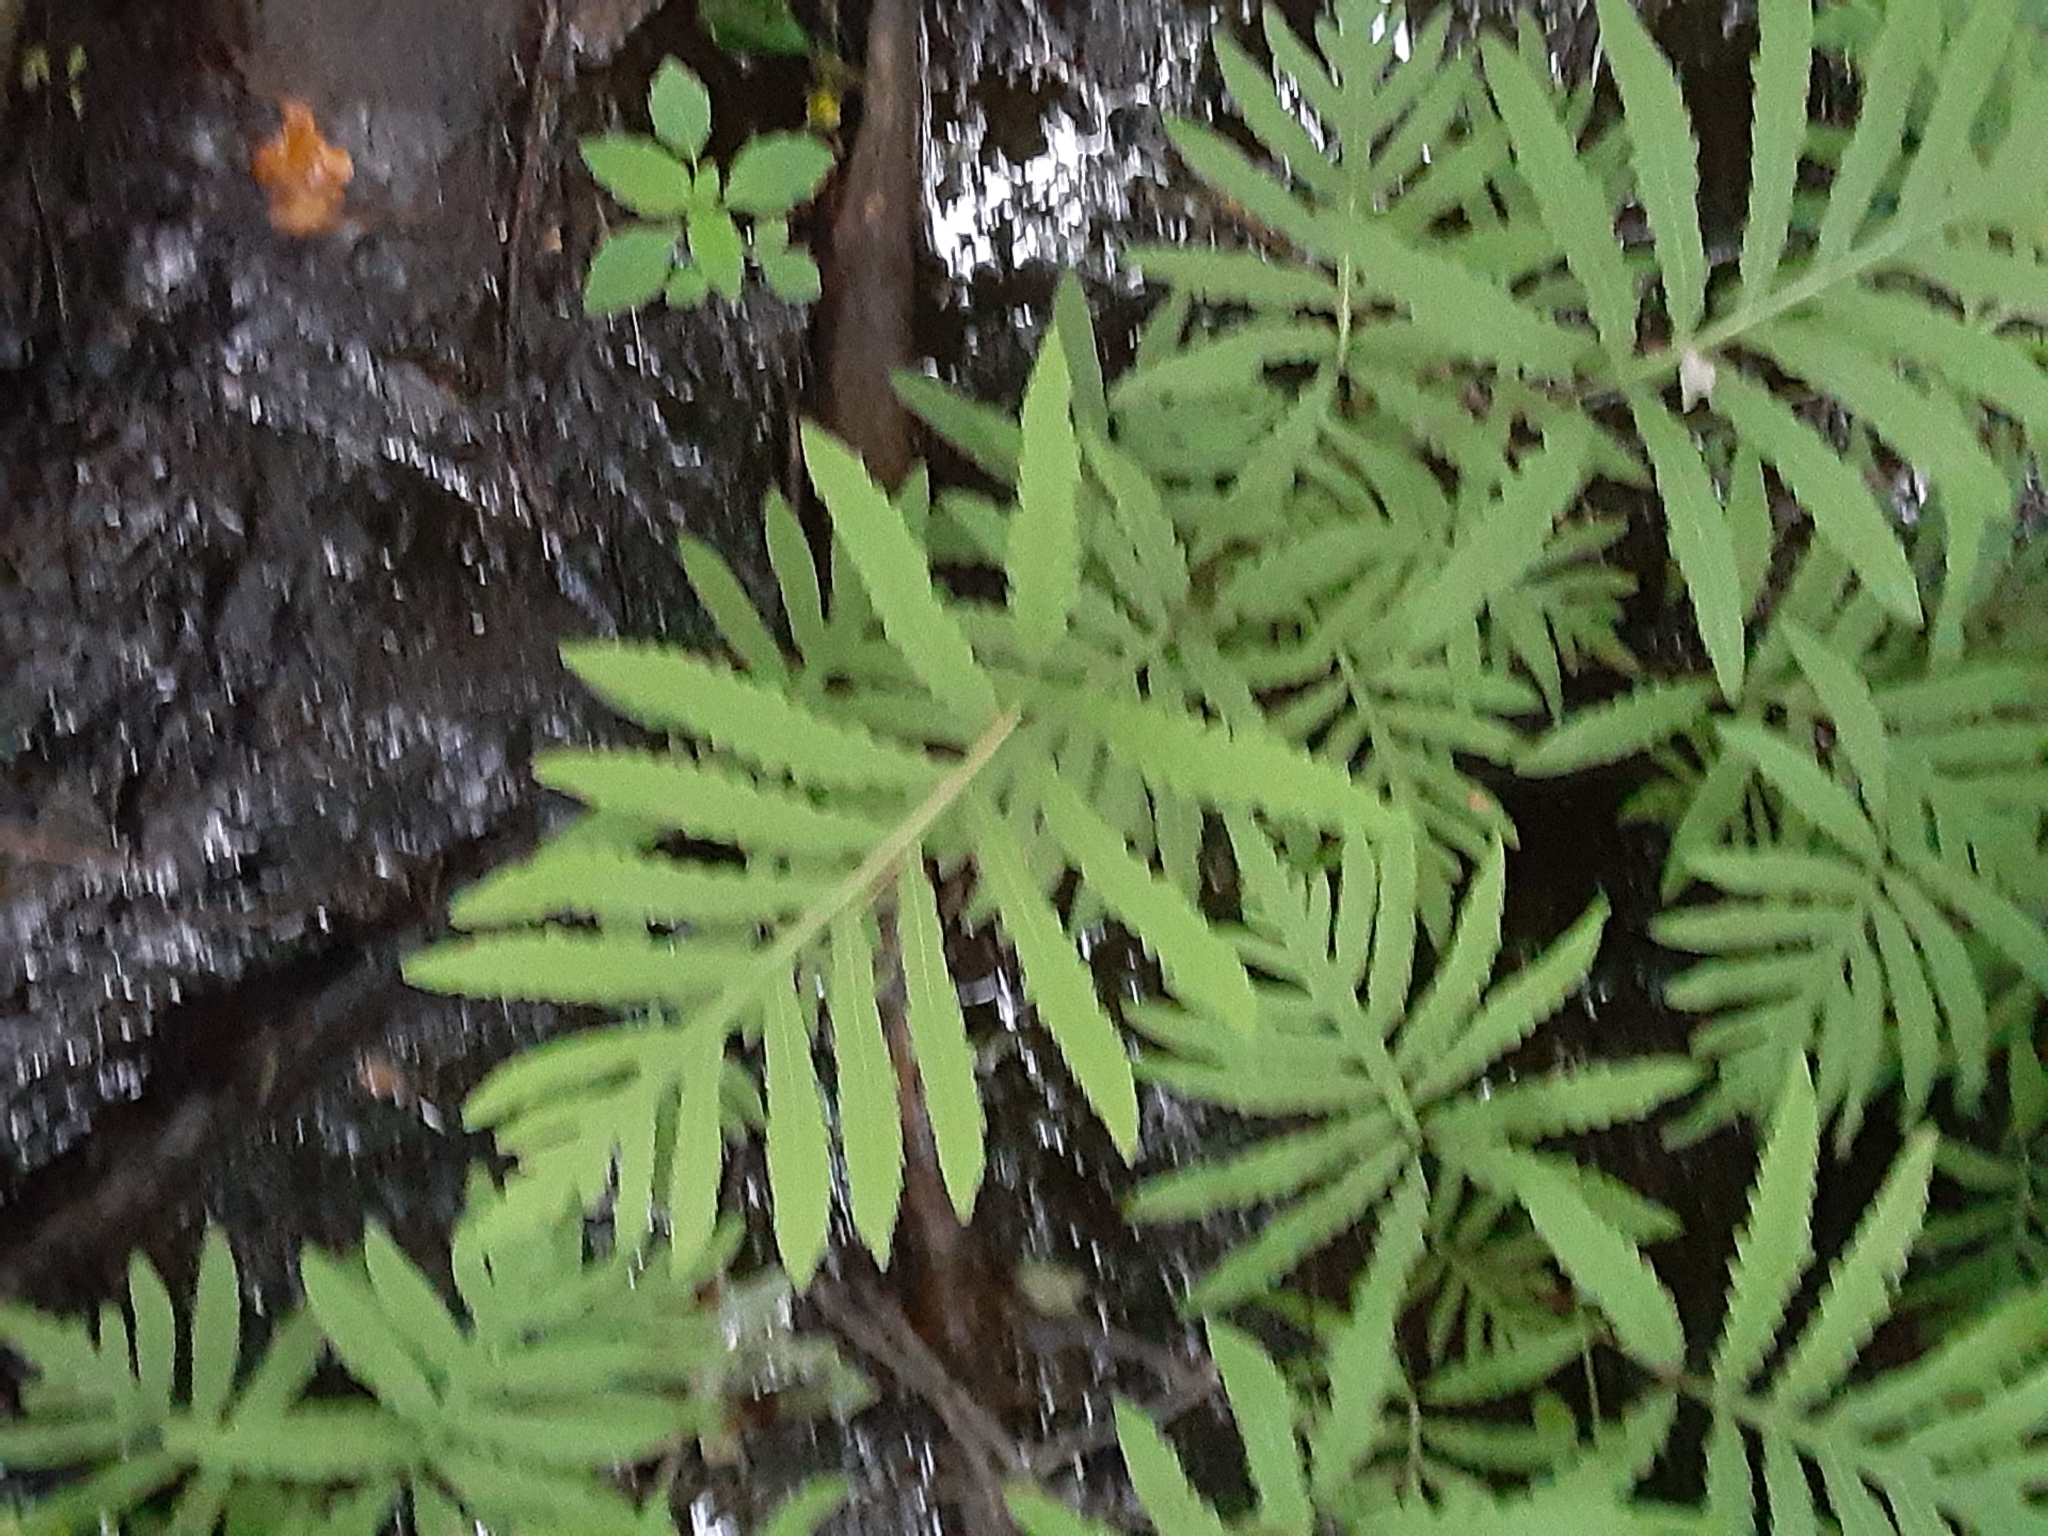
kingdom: Plantae
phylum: Tracheophyta
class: Polypodiopsida
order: Polypodiales
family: Onocleaceae
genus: Onoclea
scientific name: Onoclea sensibilis
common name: Sensitive fern
